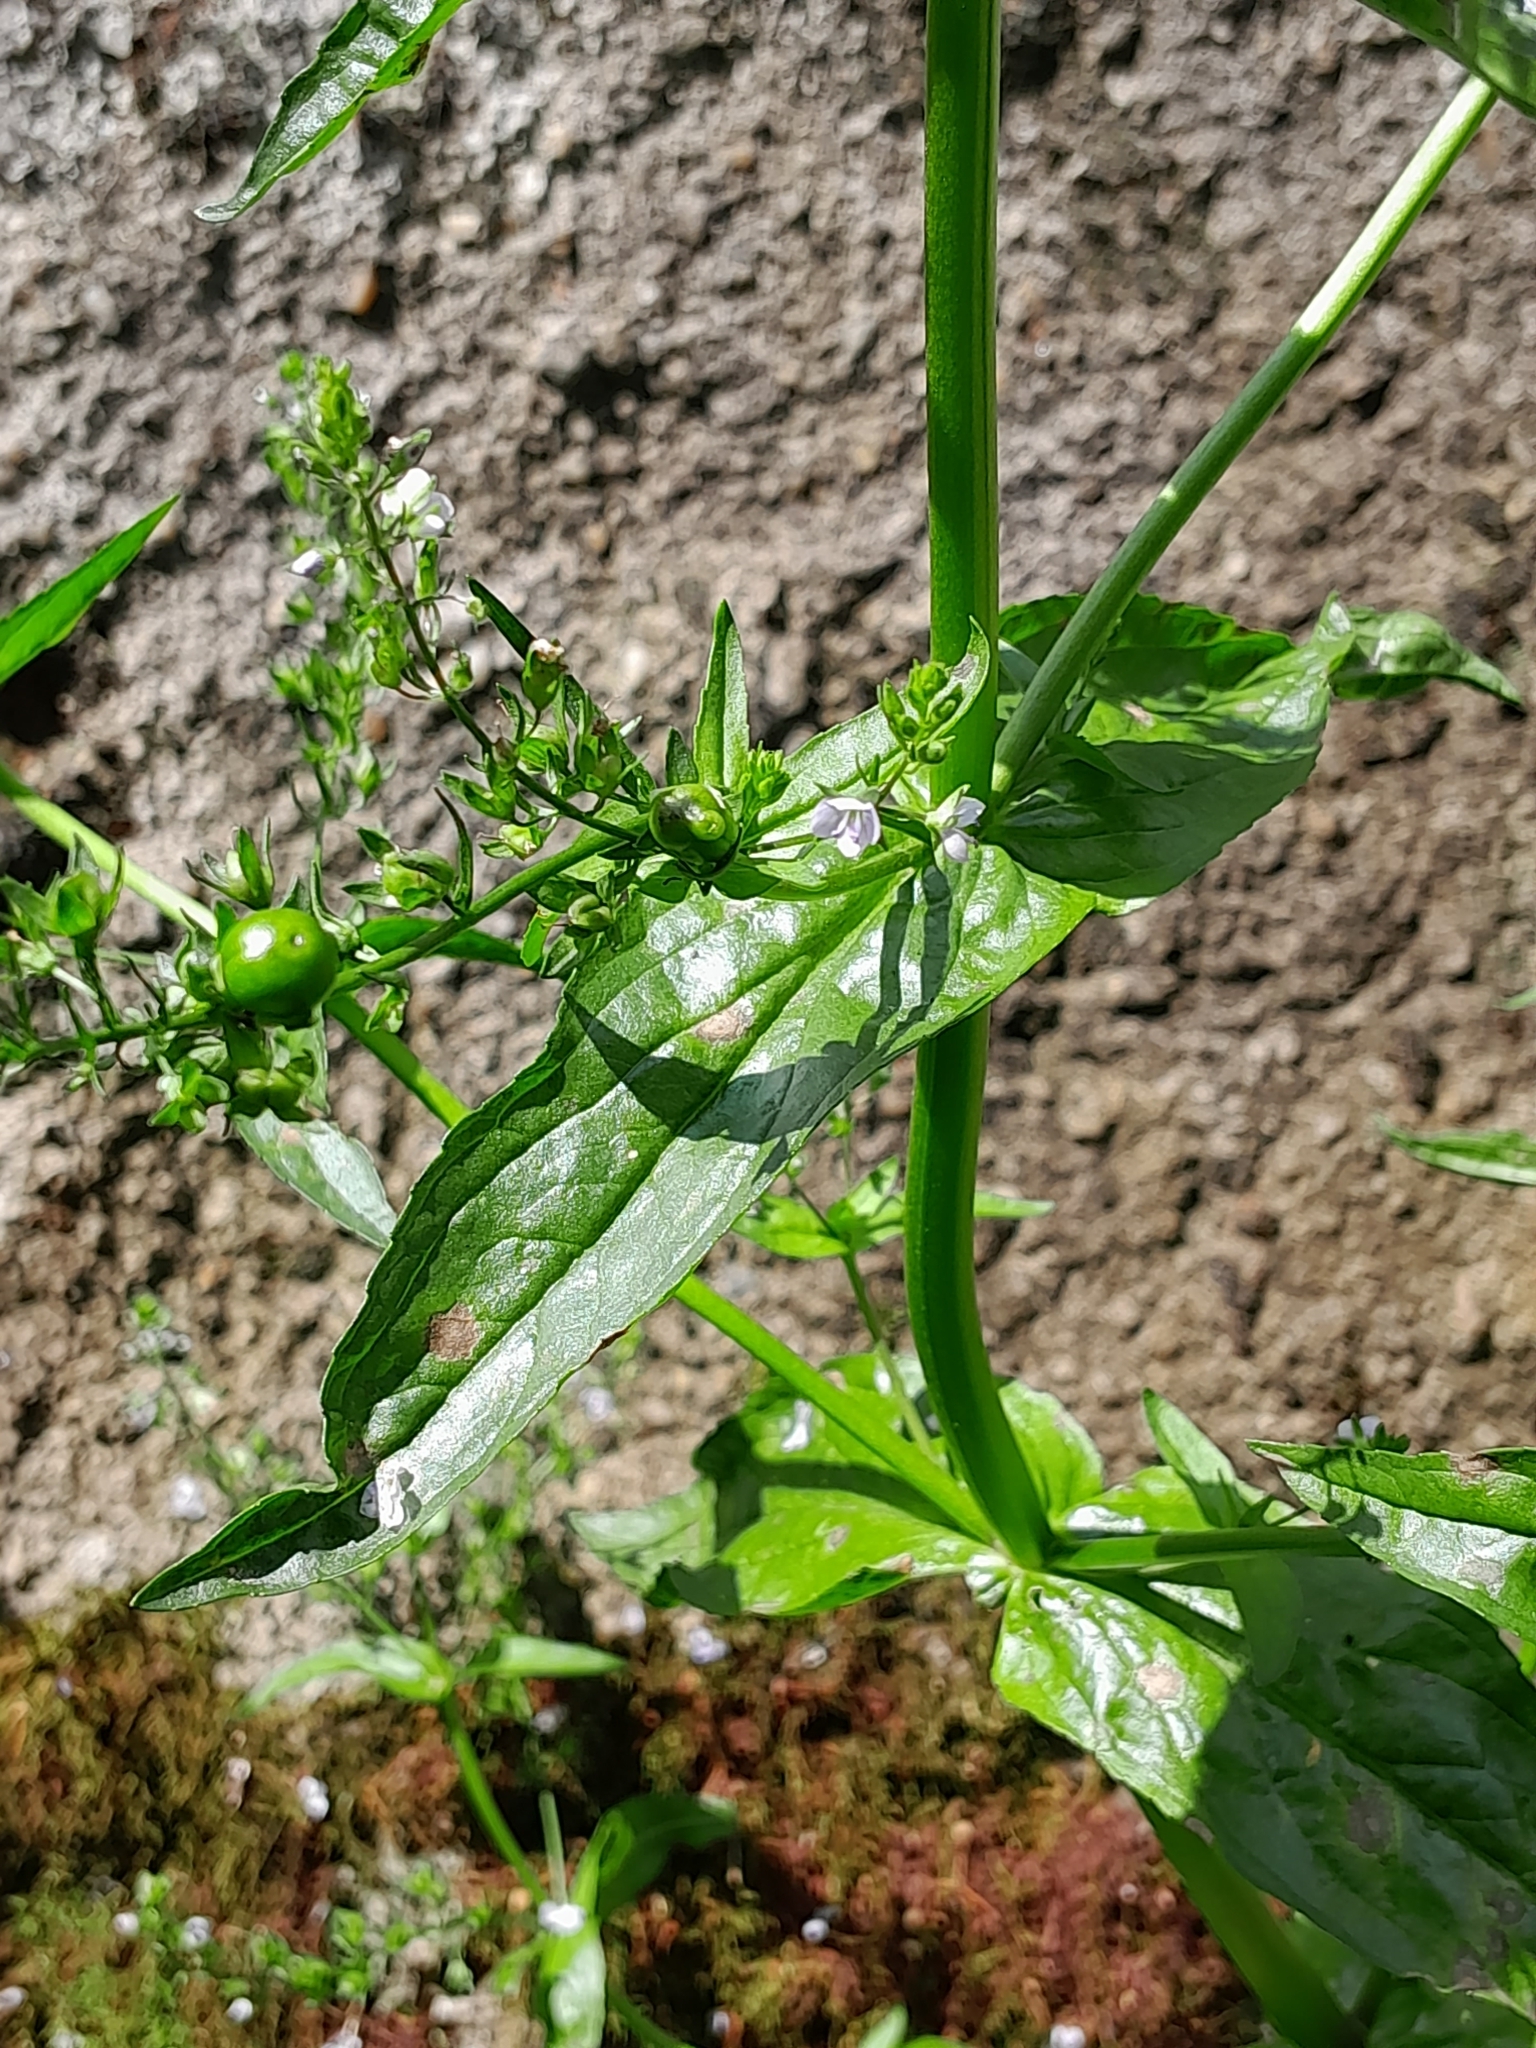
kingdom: Plantae
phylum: Tracheophyta
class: Magnoliopsida
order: Lamiales
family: Plantaginaceae
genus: Veronica
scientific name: Veronica anagallis-aquatica
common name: Water speedwell
